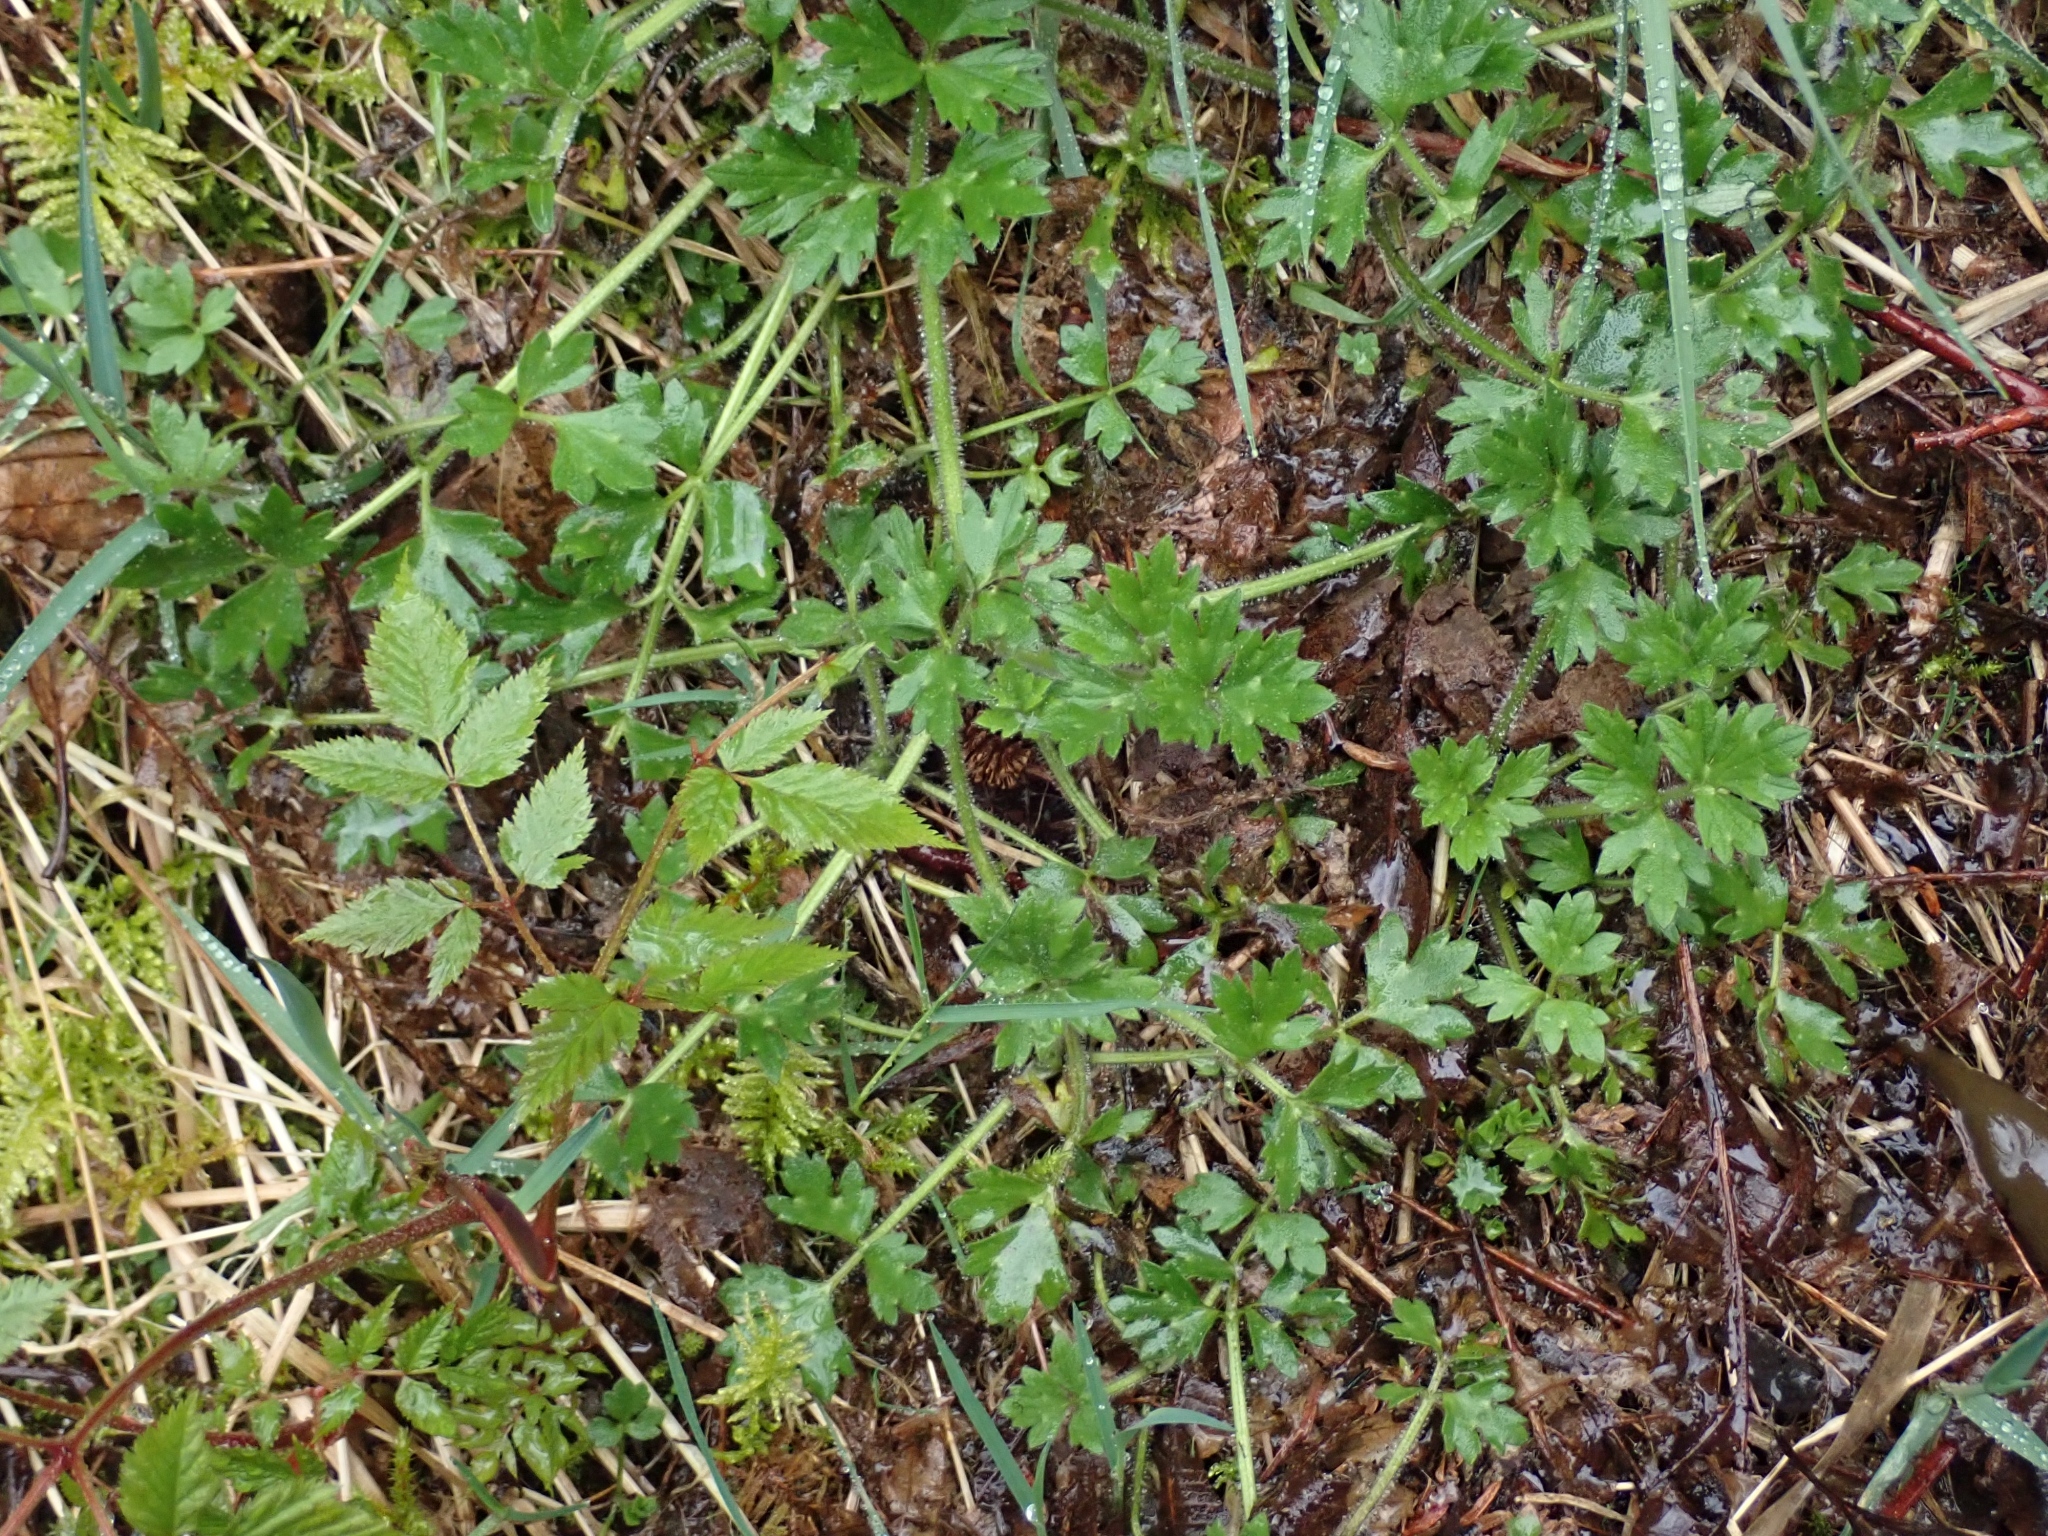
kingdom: Plantae
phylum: Tracheophyta
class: Magnoliopsida
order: Ranunculales
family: Ranunculaceae
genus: Ranunculus
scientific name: Ranunculus repens
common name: Creeping buttercup
